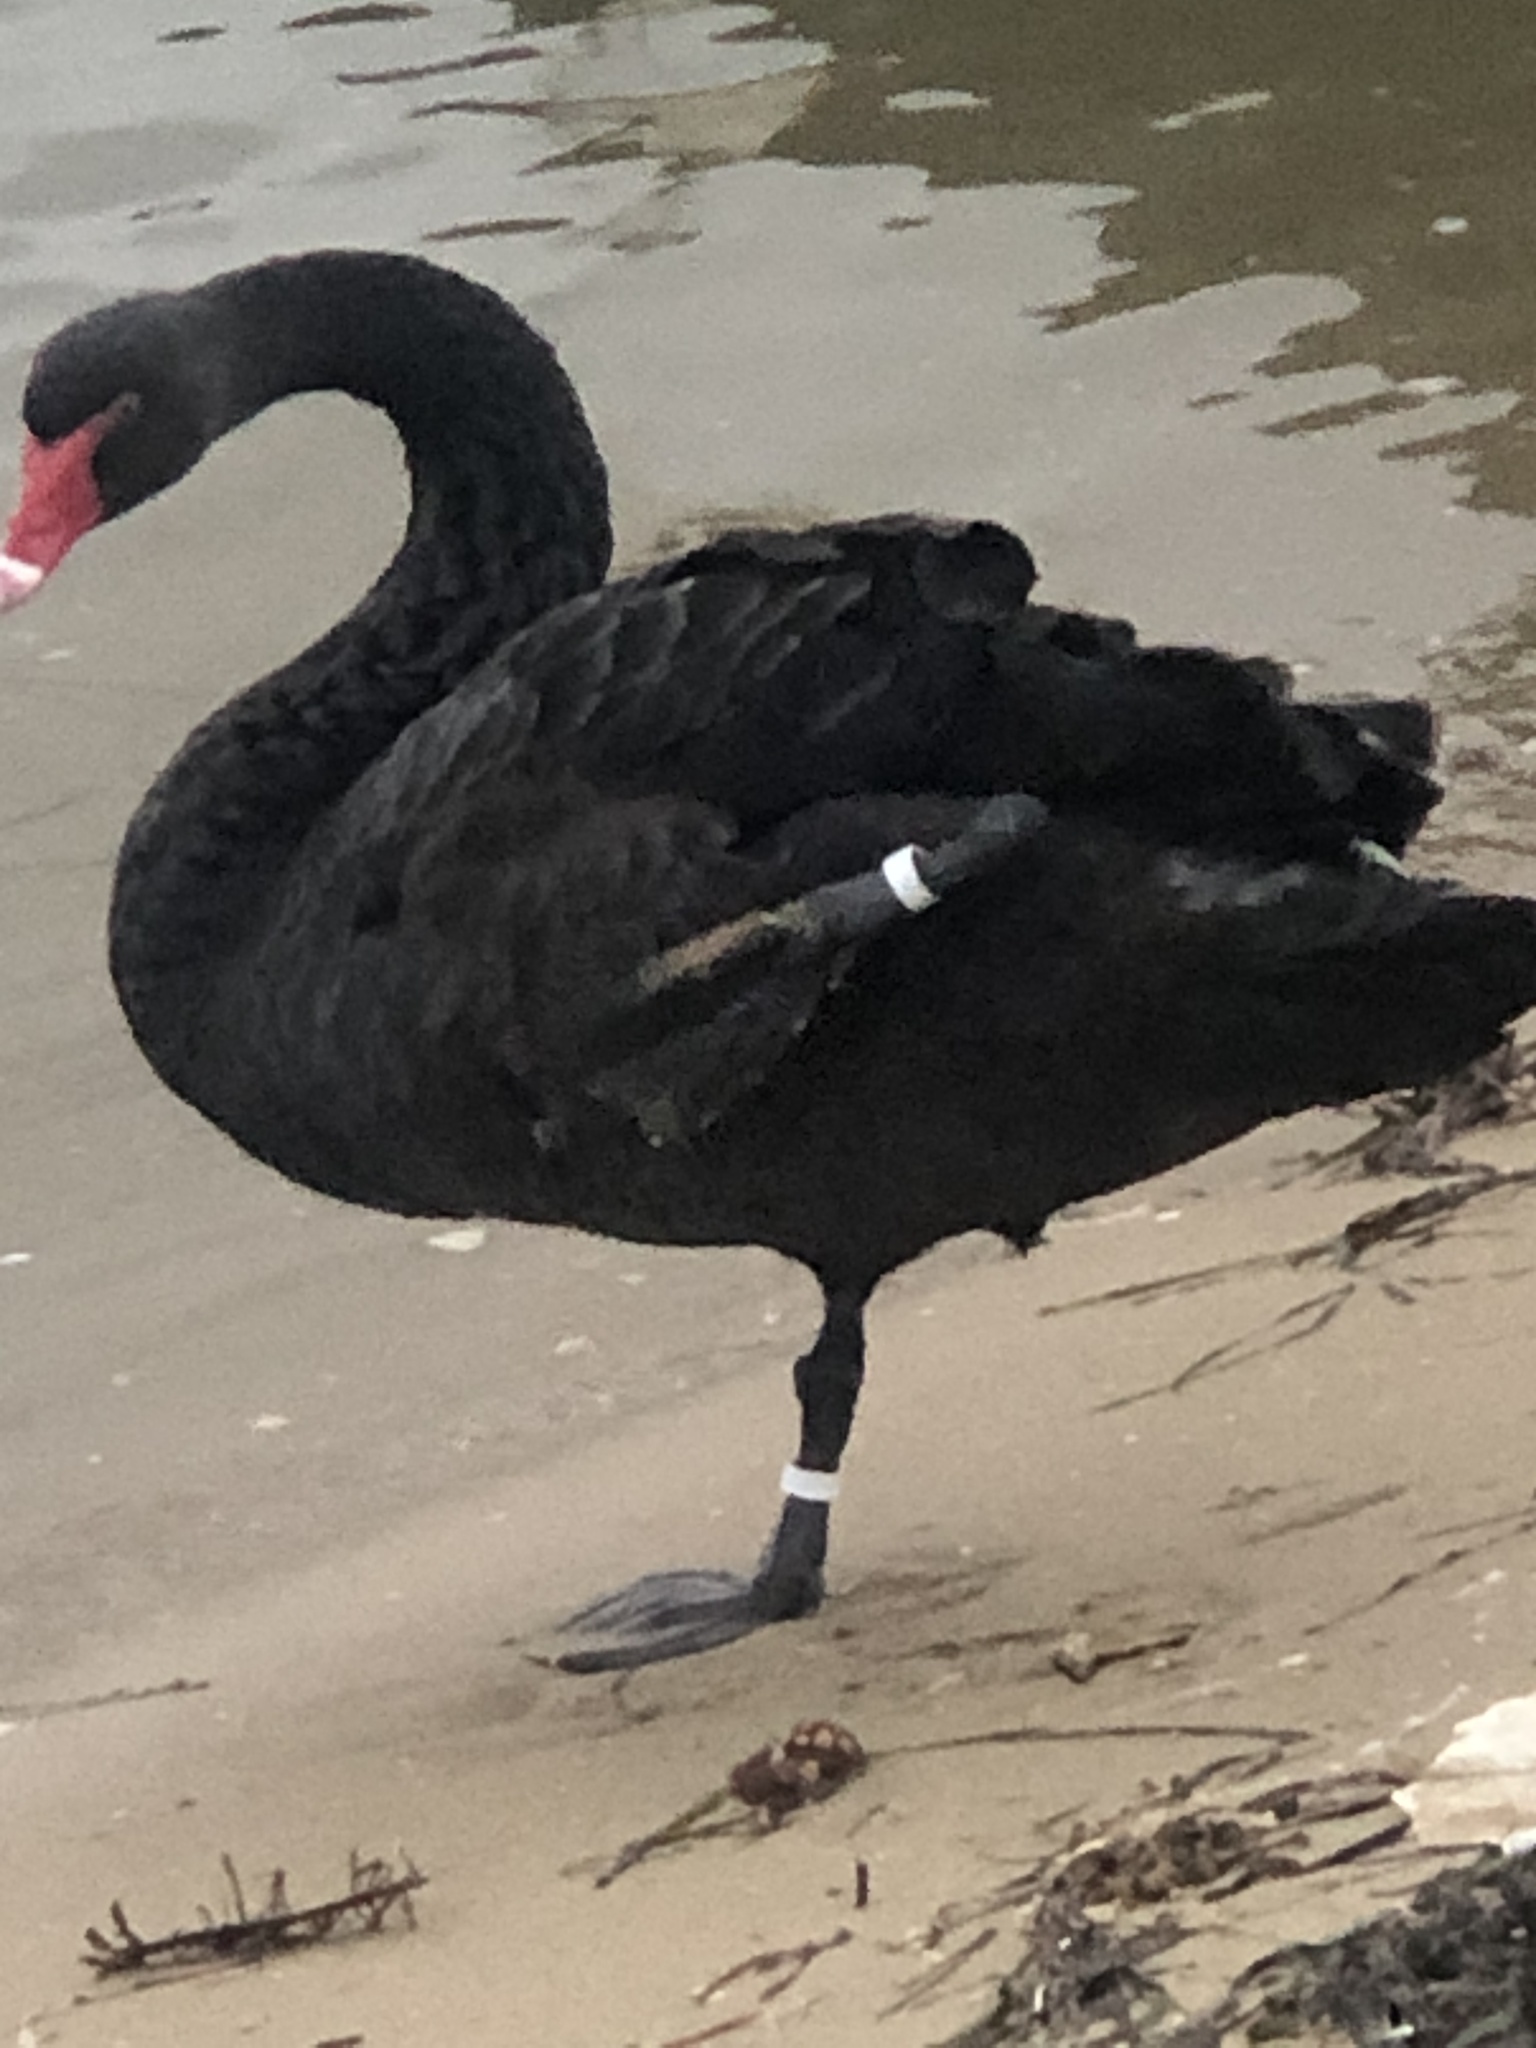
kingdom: Animalia
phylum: Chordata
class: Aves
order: Anseriformes
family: Anatidae
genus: Cygnus
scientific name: Cygnus atratus
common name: Black swan
